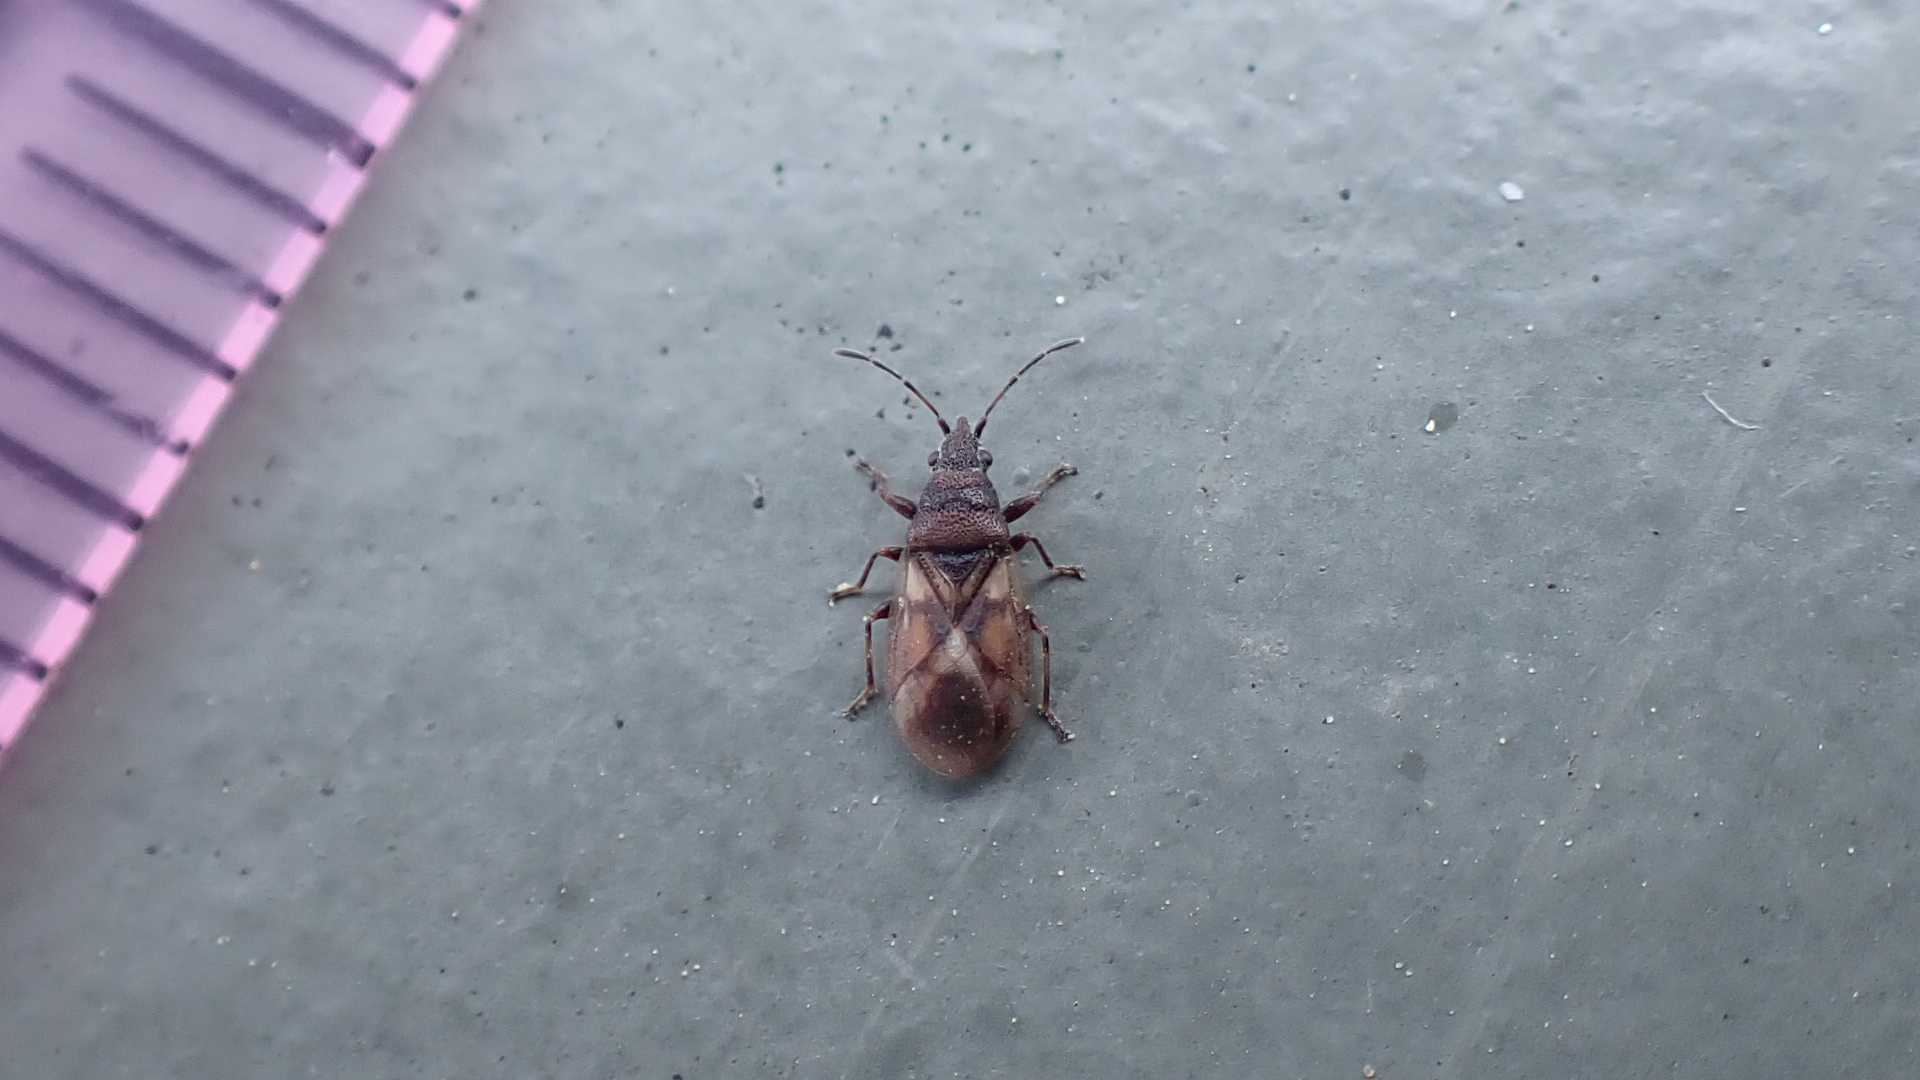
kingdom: Animalia
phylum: Arthropoda
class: Insecta
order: Hemiptera
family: Oxycarenidae
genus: Oxycarenus
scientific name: Oxycarenus modestus
